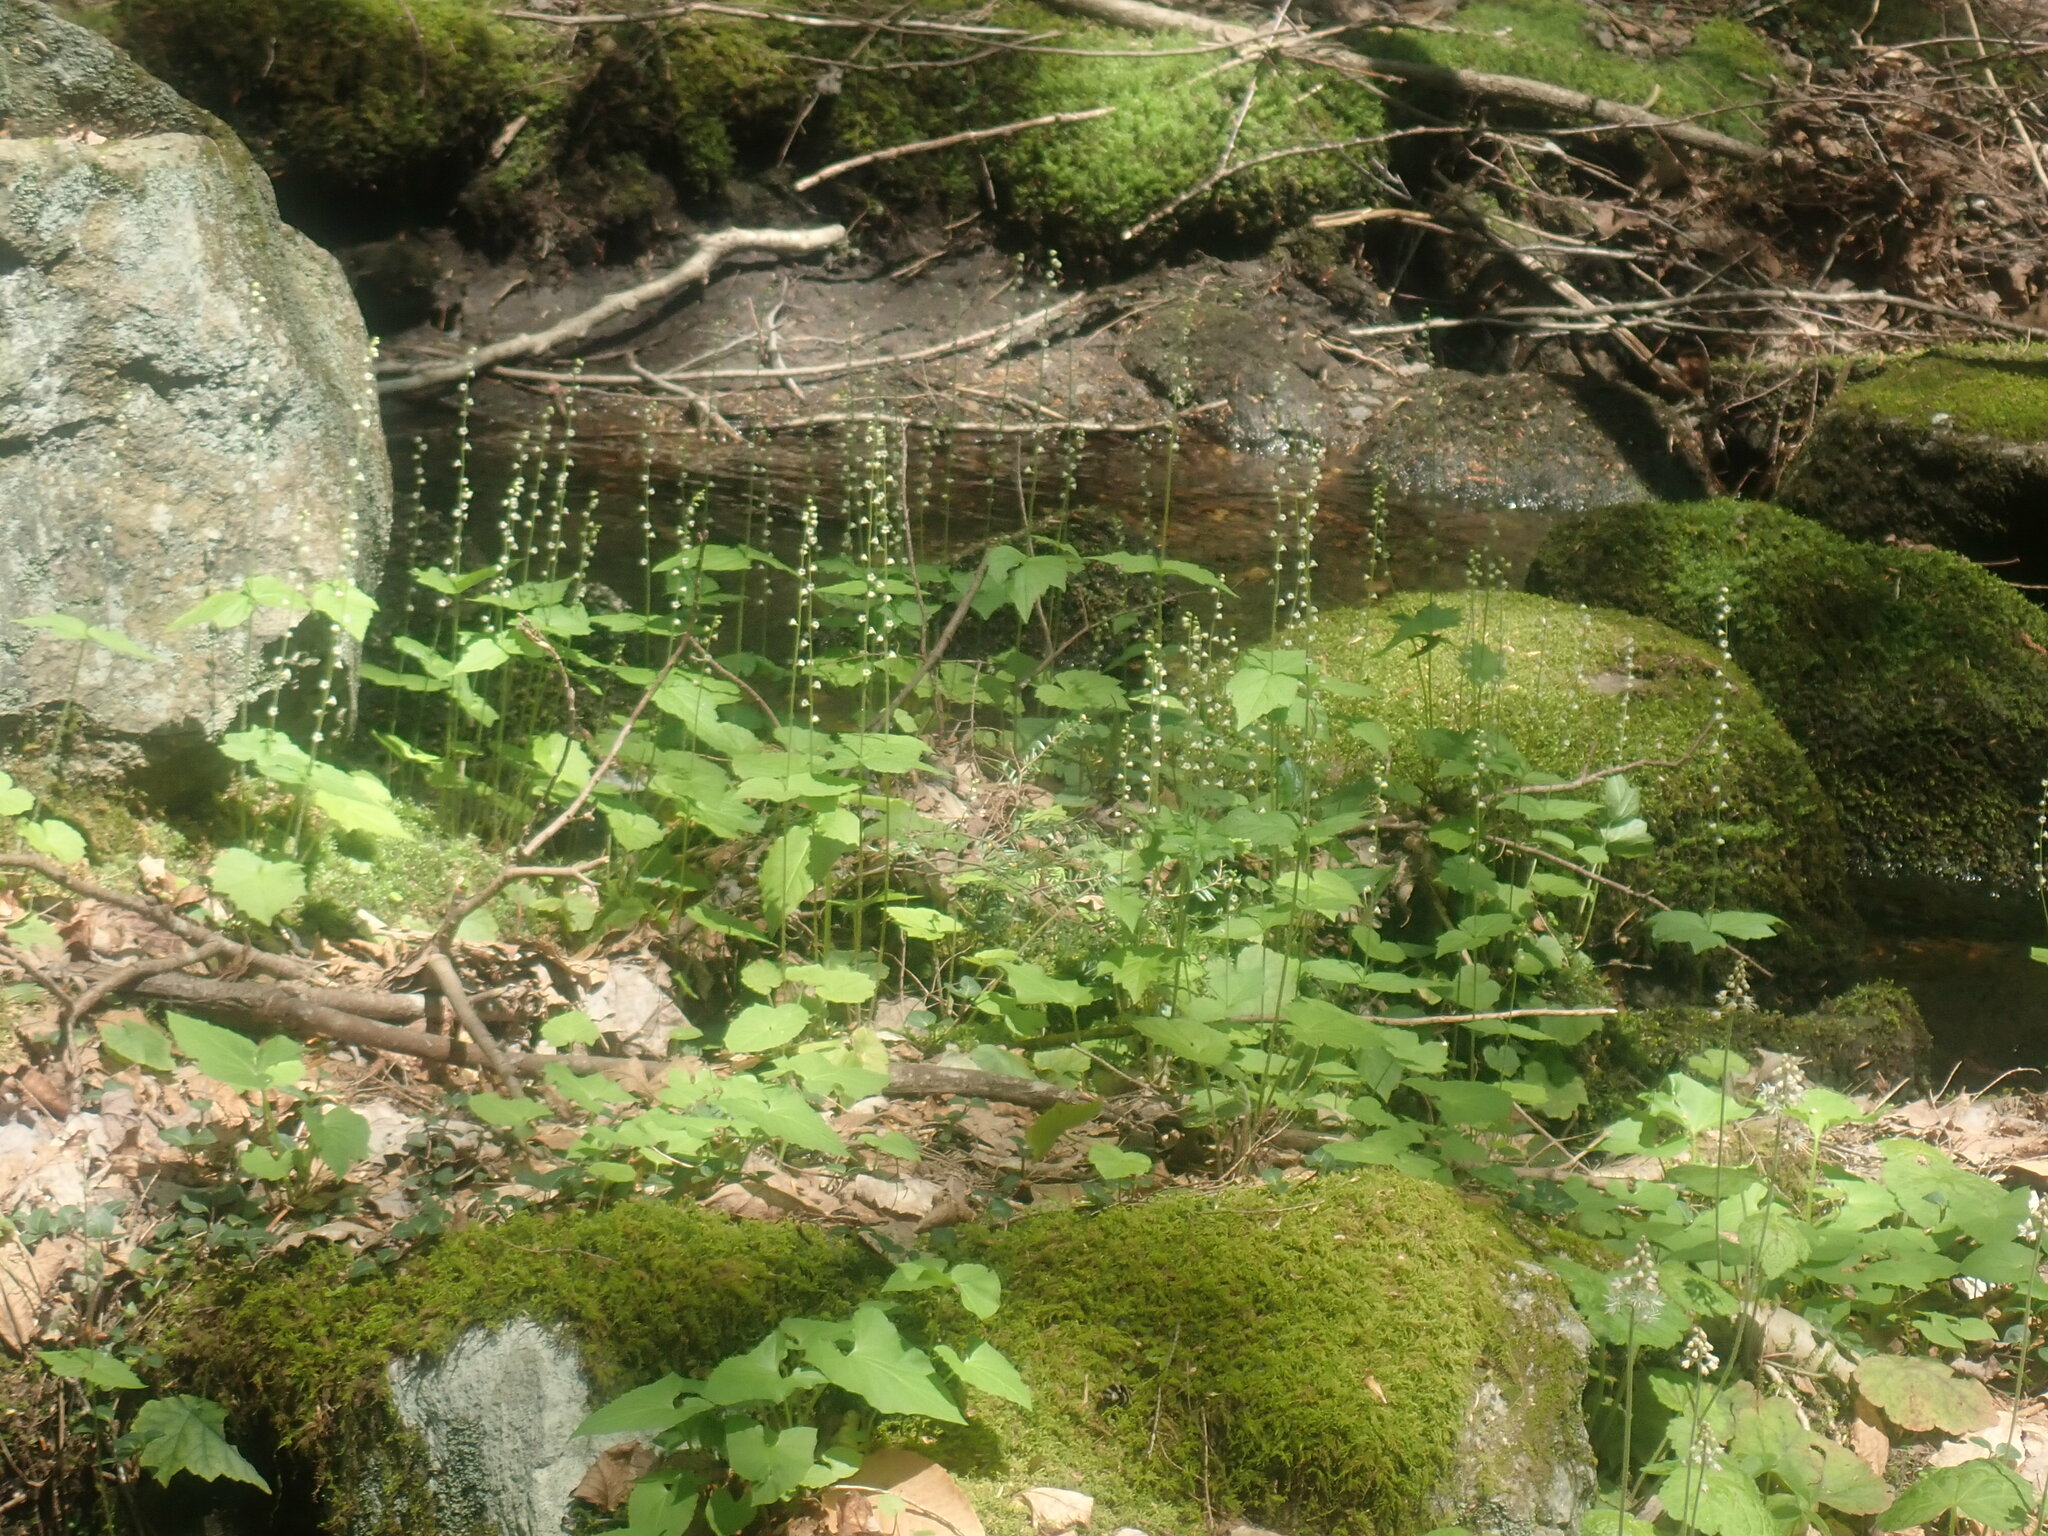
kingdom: Plantae
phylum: Tracheophyta
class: Magnoliopsida
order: Saxifragales
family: Saxifragaceae
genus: Mitella
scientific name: Mitella diphylla
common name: Coolwort
